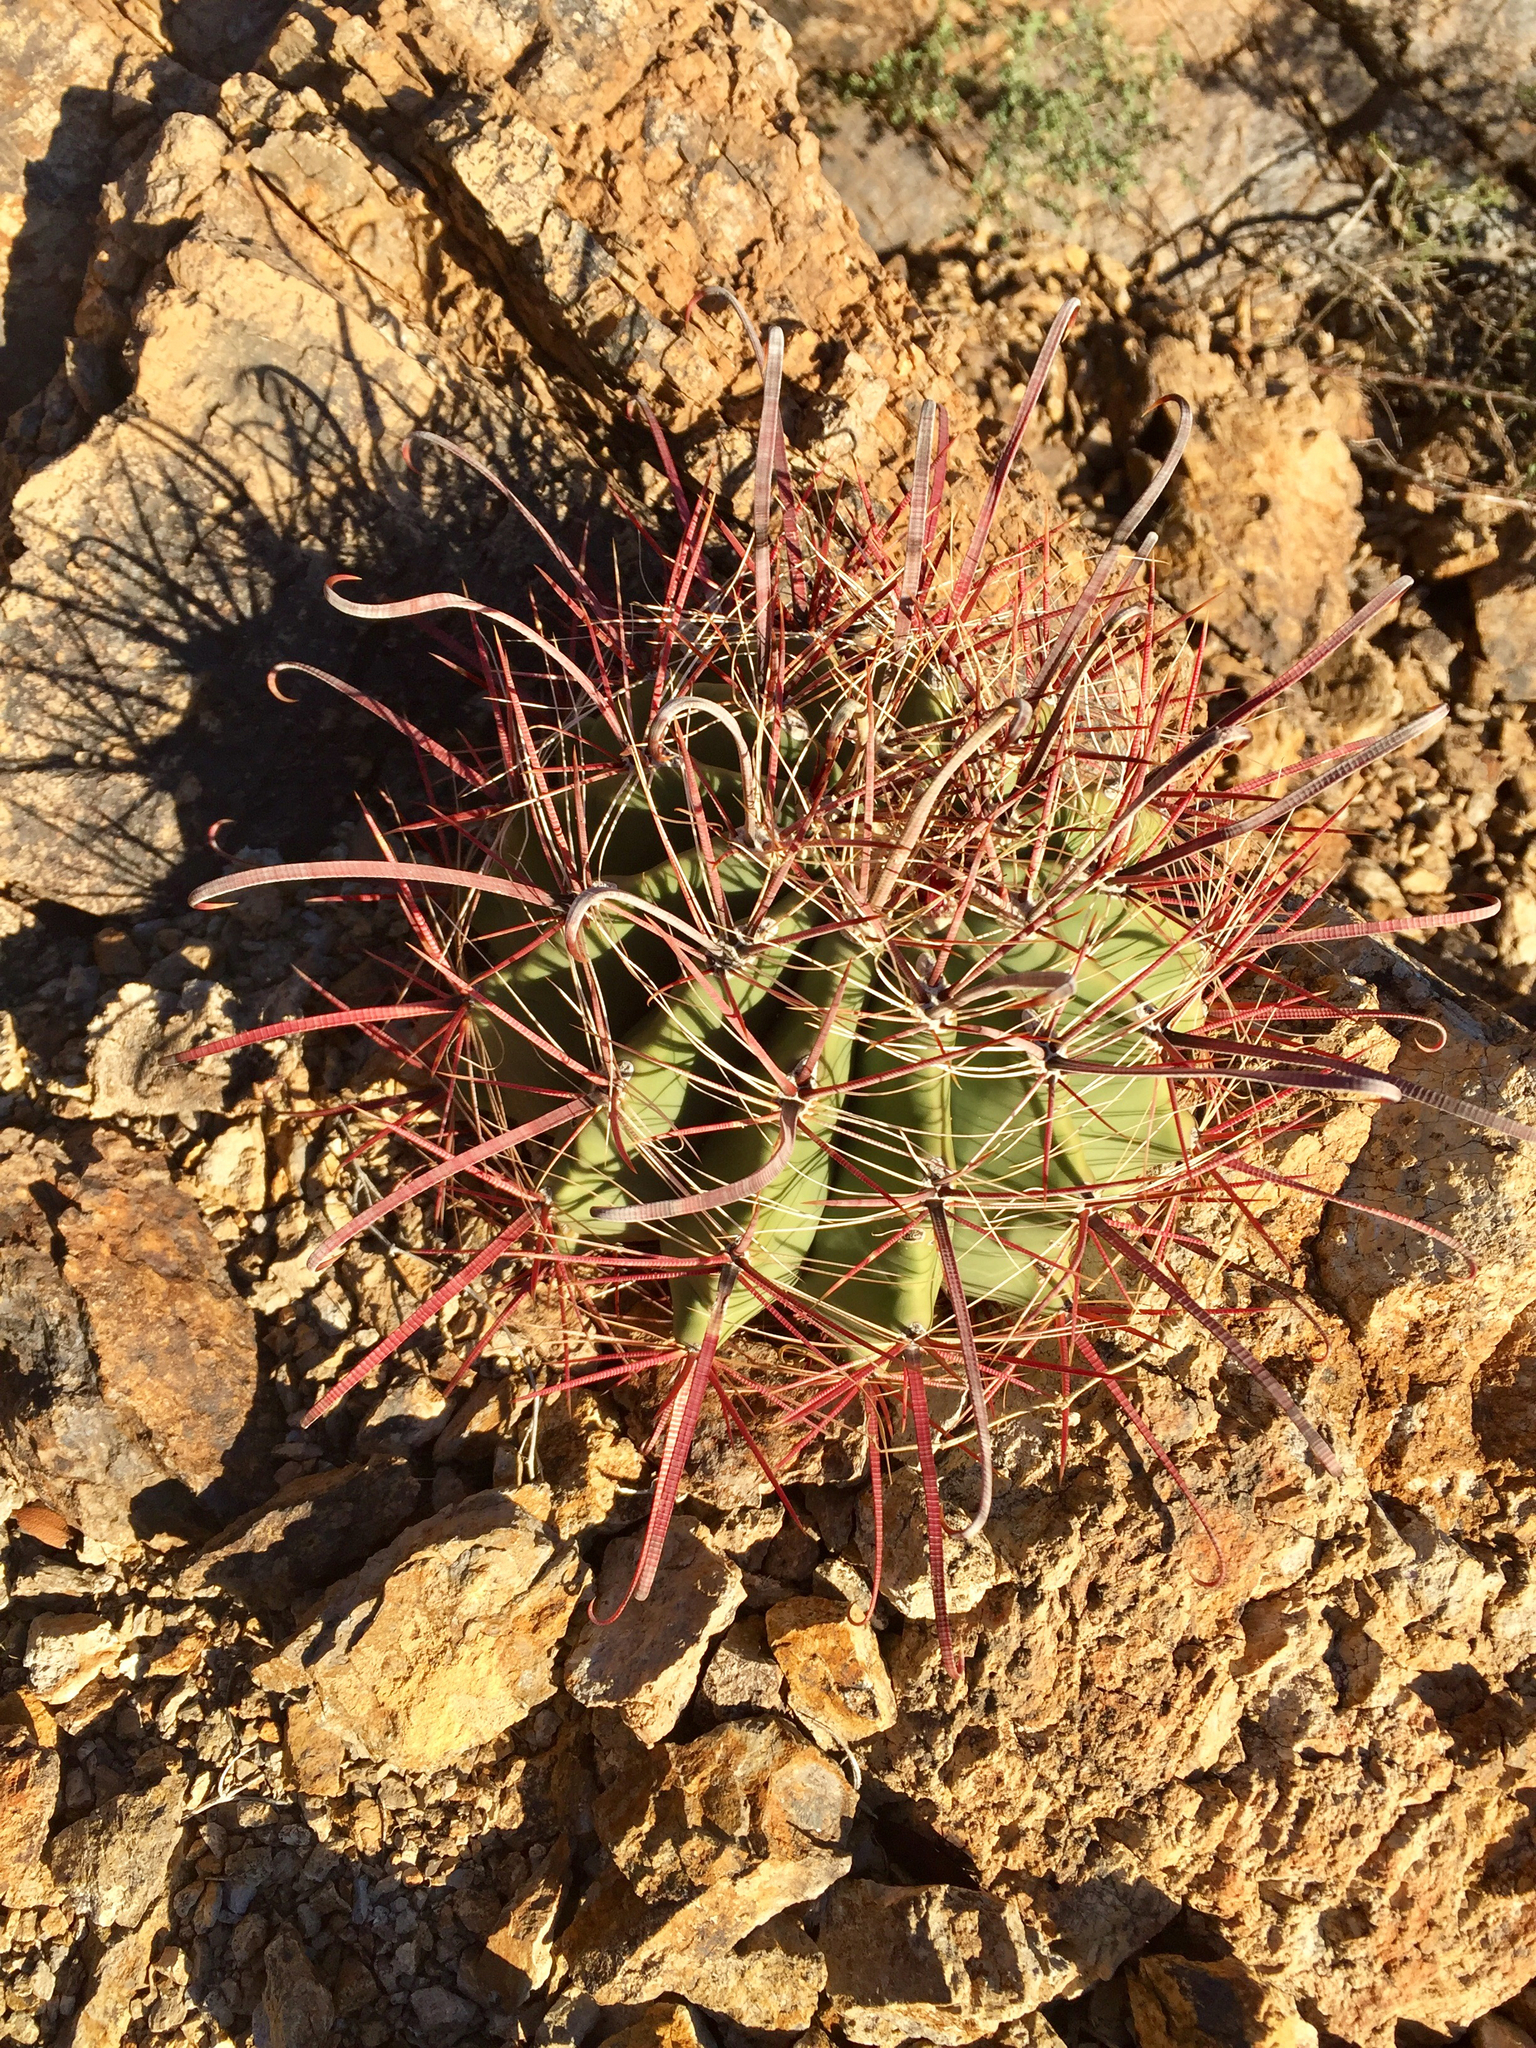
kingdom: Plantae
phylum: Tracheophyta
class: Magnoliopsida
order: Caryophyllales
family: Cactaceae
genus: Ferocactus
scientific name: Ferocactus wislizeni
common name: Candy barrel cactus
